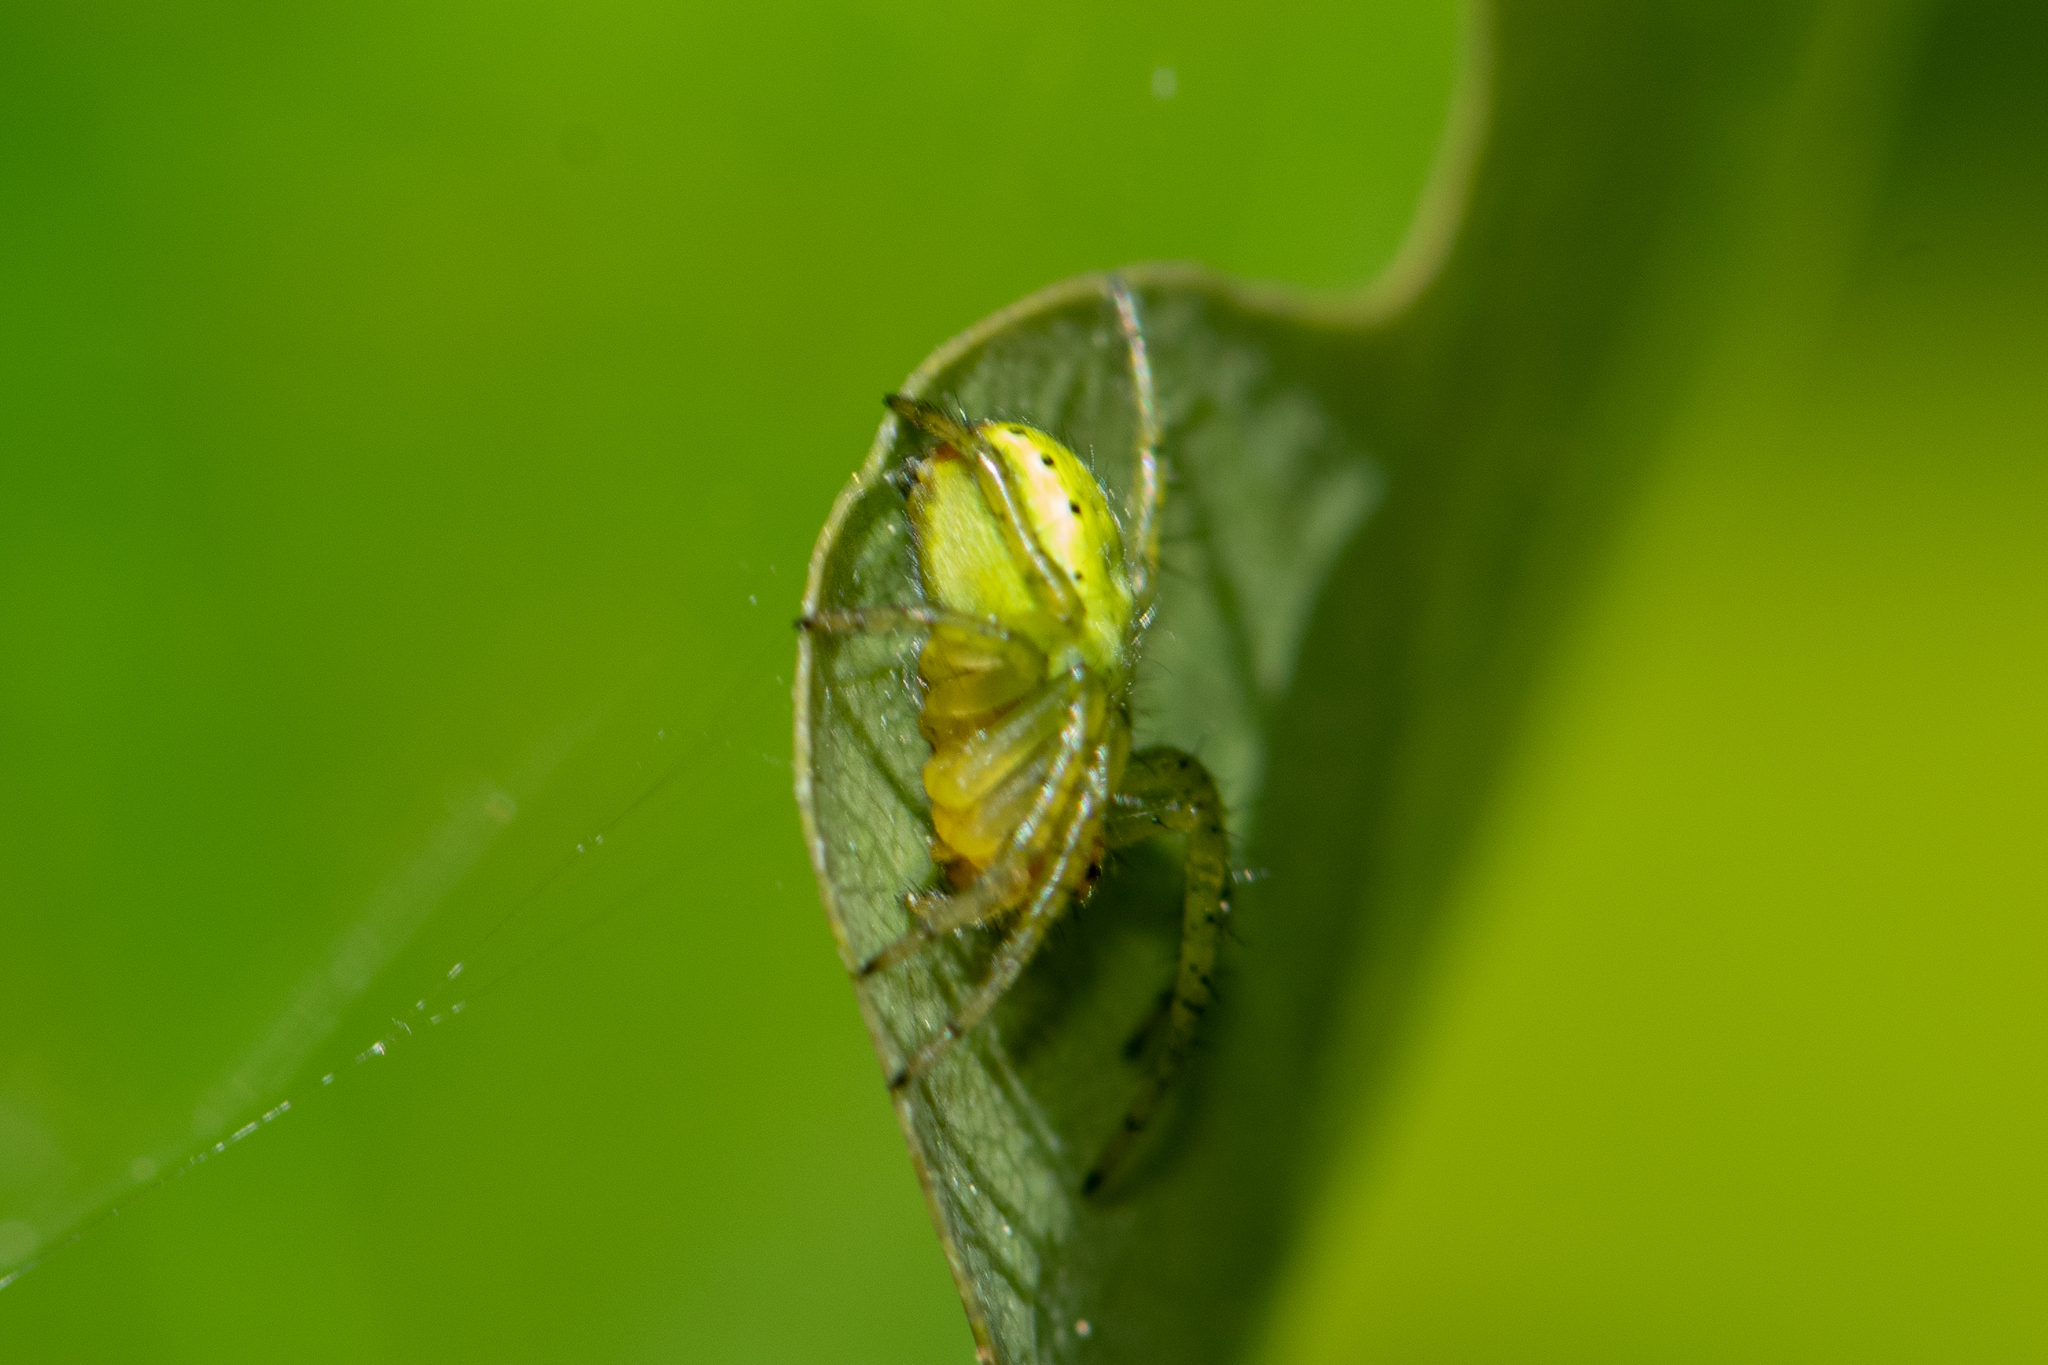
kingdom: Animalia
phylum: Arthropoda
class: Arachnida
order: Araneae
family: Araneidae
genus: Araniella
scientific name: Araniella
